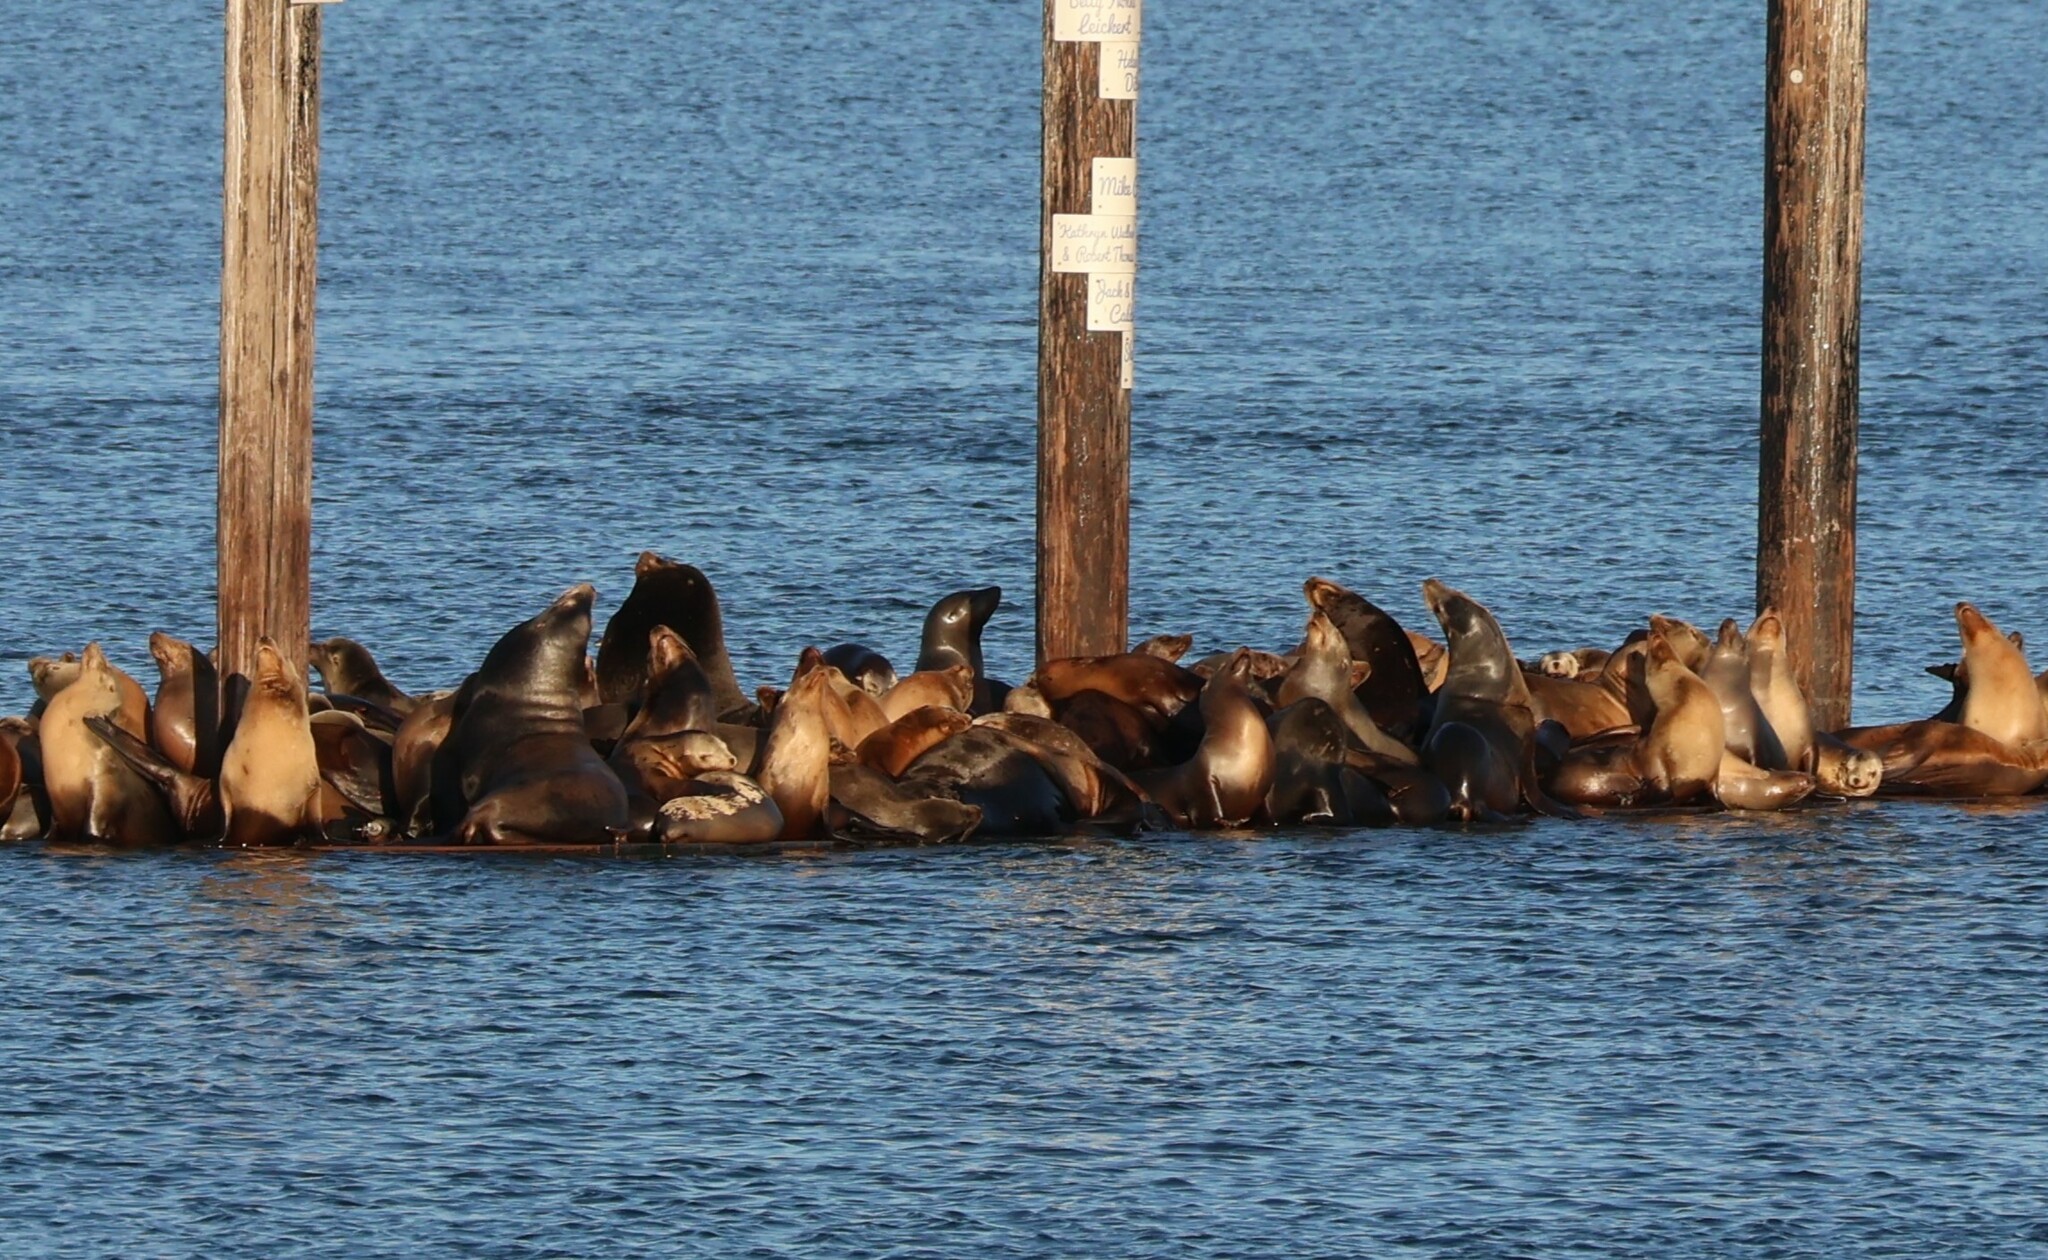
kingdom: Animalia
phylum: Chordata
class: Mammalia
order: Carnivora
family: Otariidae
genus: Zalophus
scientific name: Zalophus californianus
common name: California sea lion
